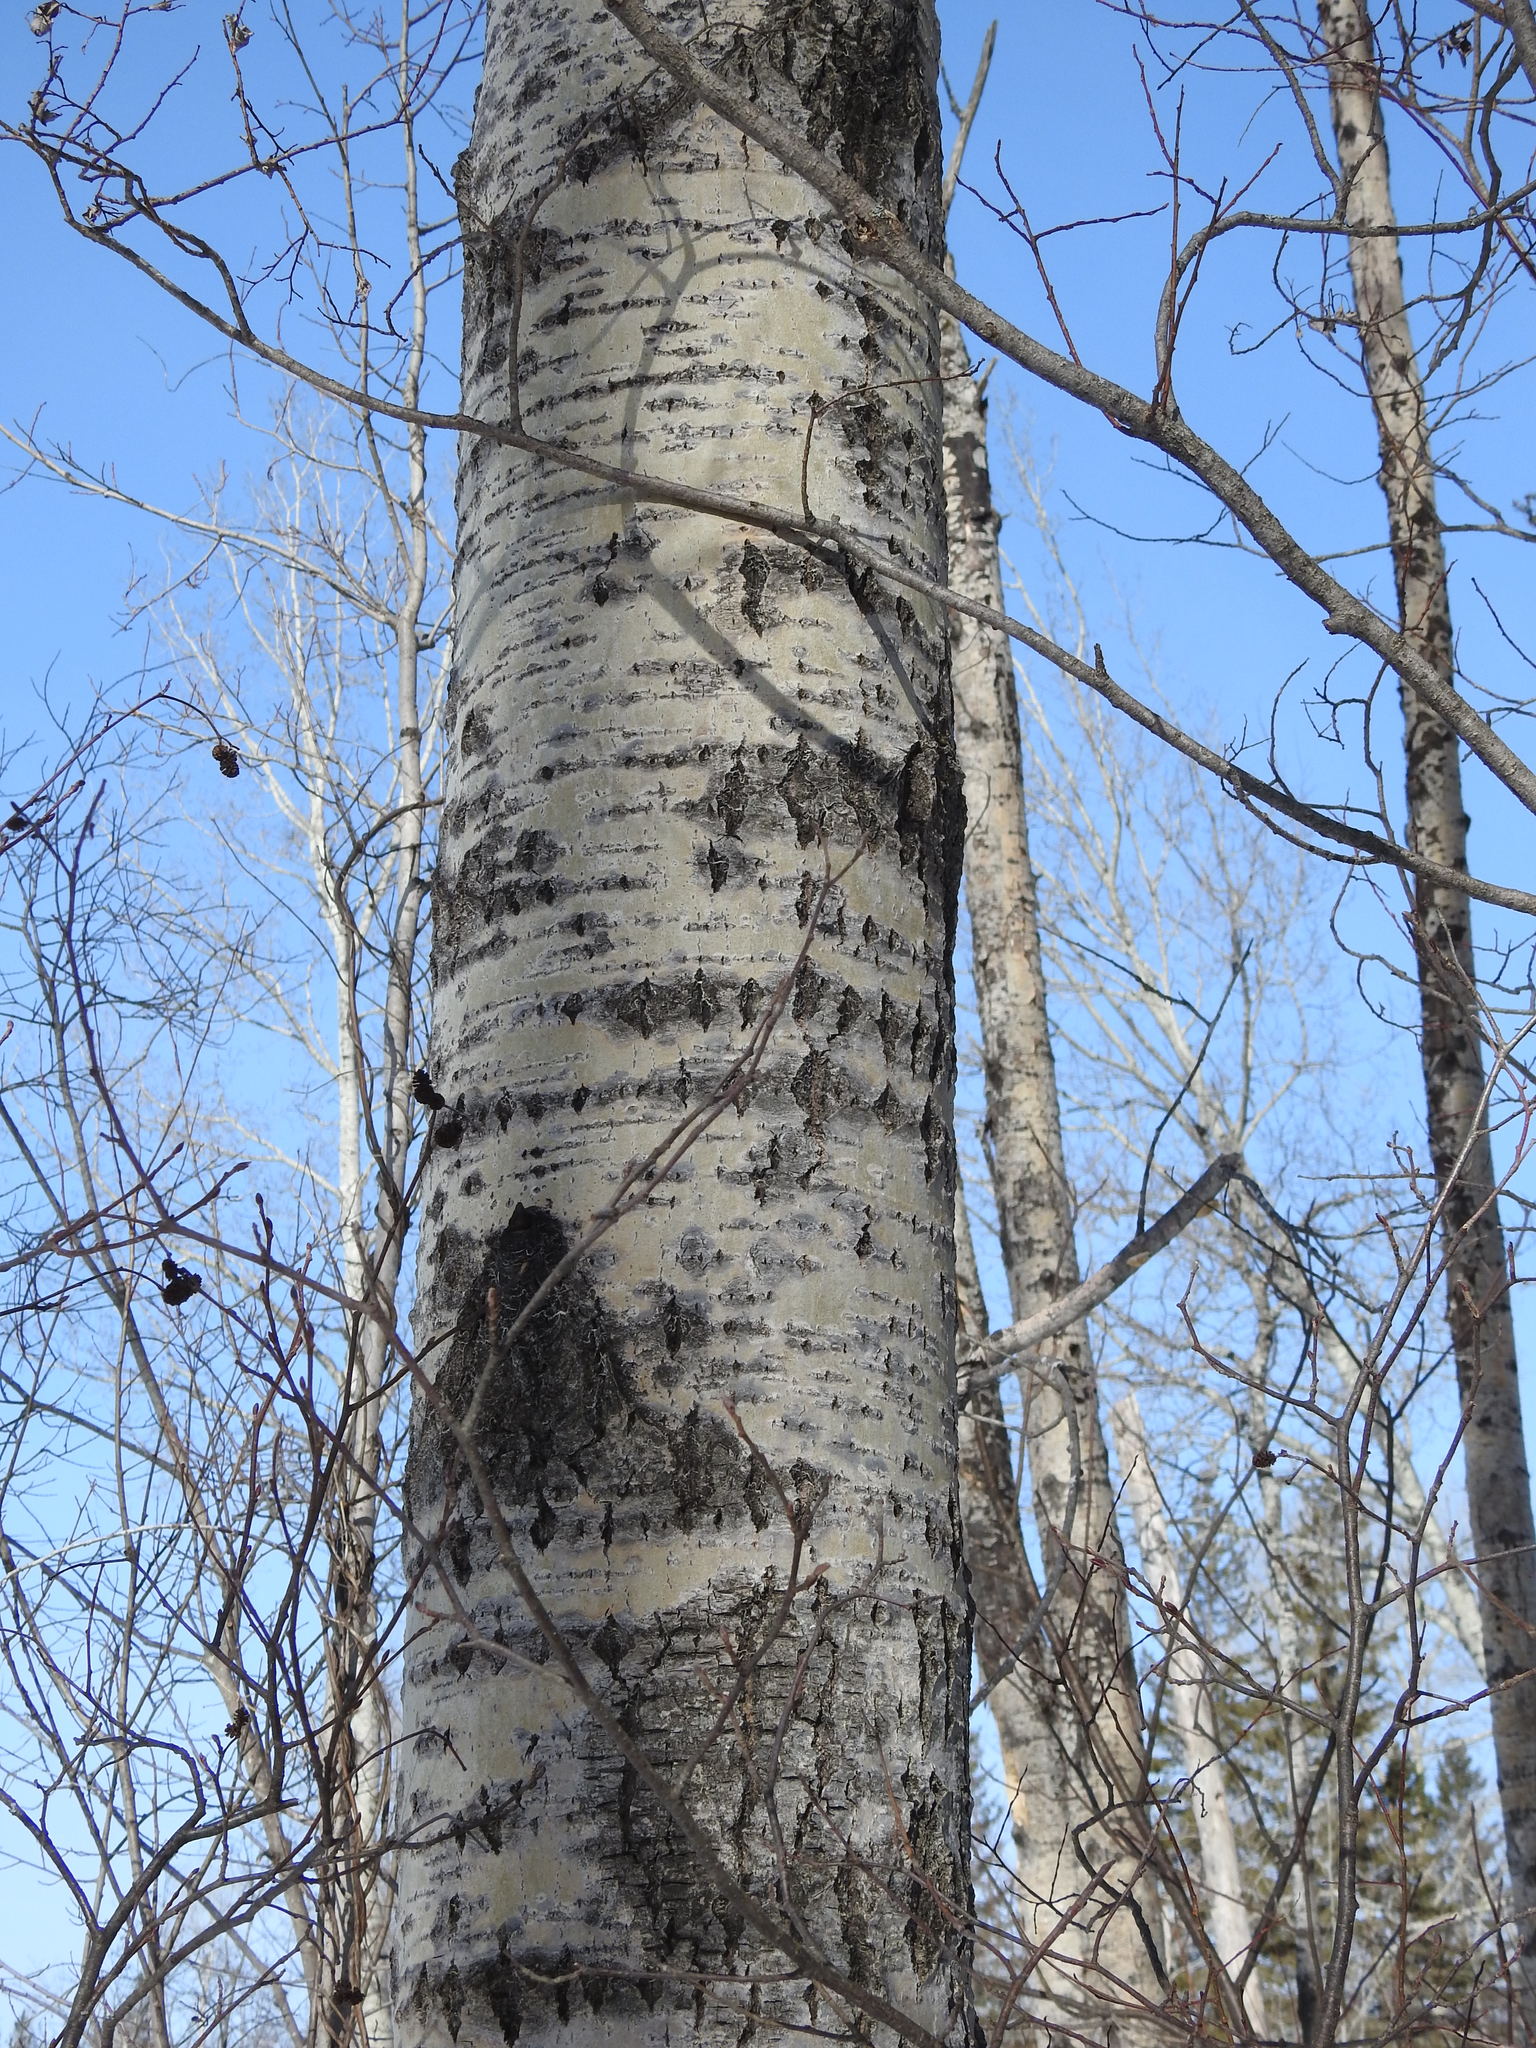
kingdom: Plantae
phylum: Tracheophyta
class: Magnoliopsida
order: Malpighiales
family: Salicaceae
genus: Populus
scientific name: Populus tremuloides
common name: Quaking aspen
